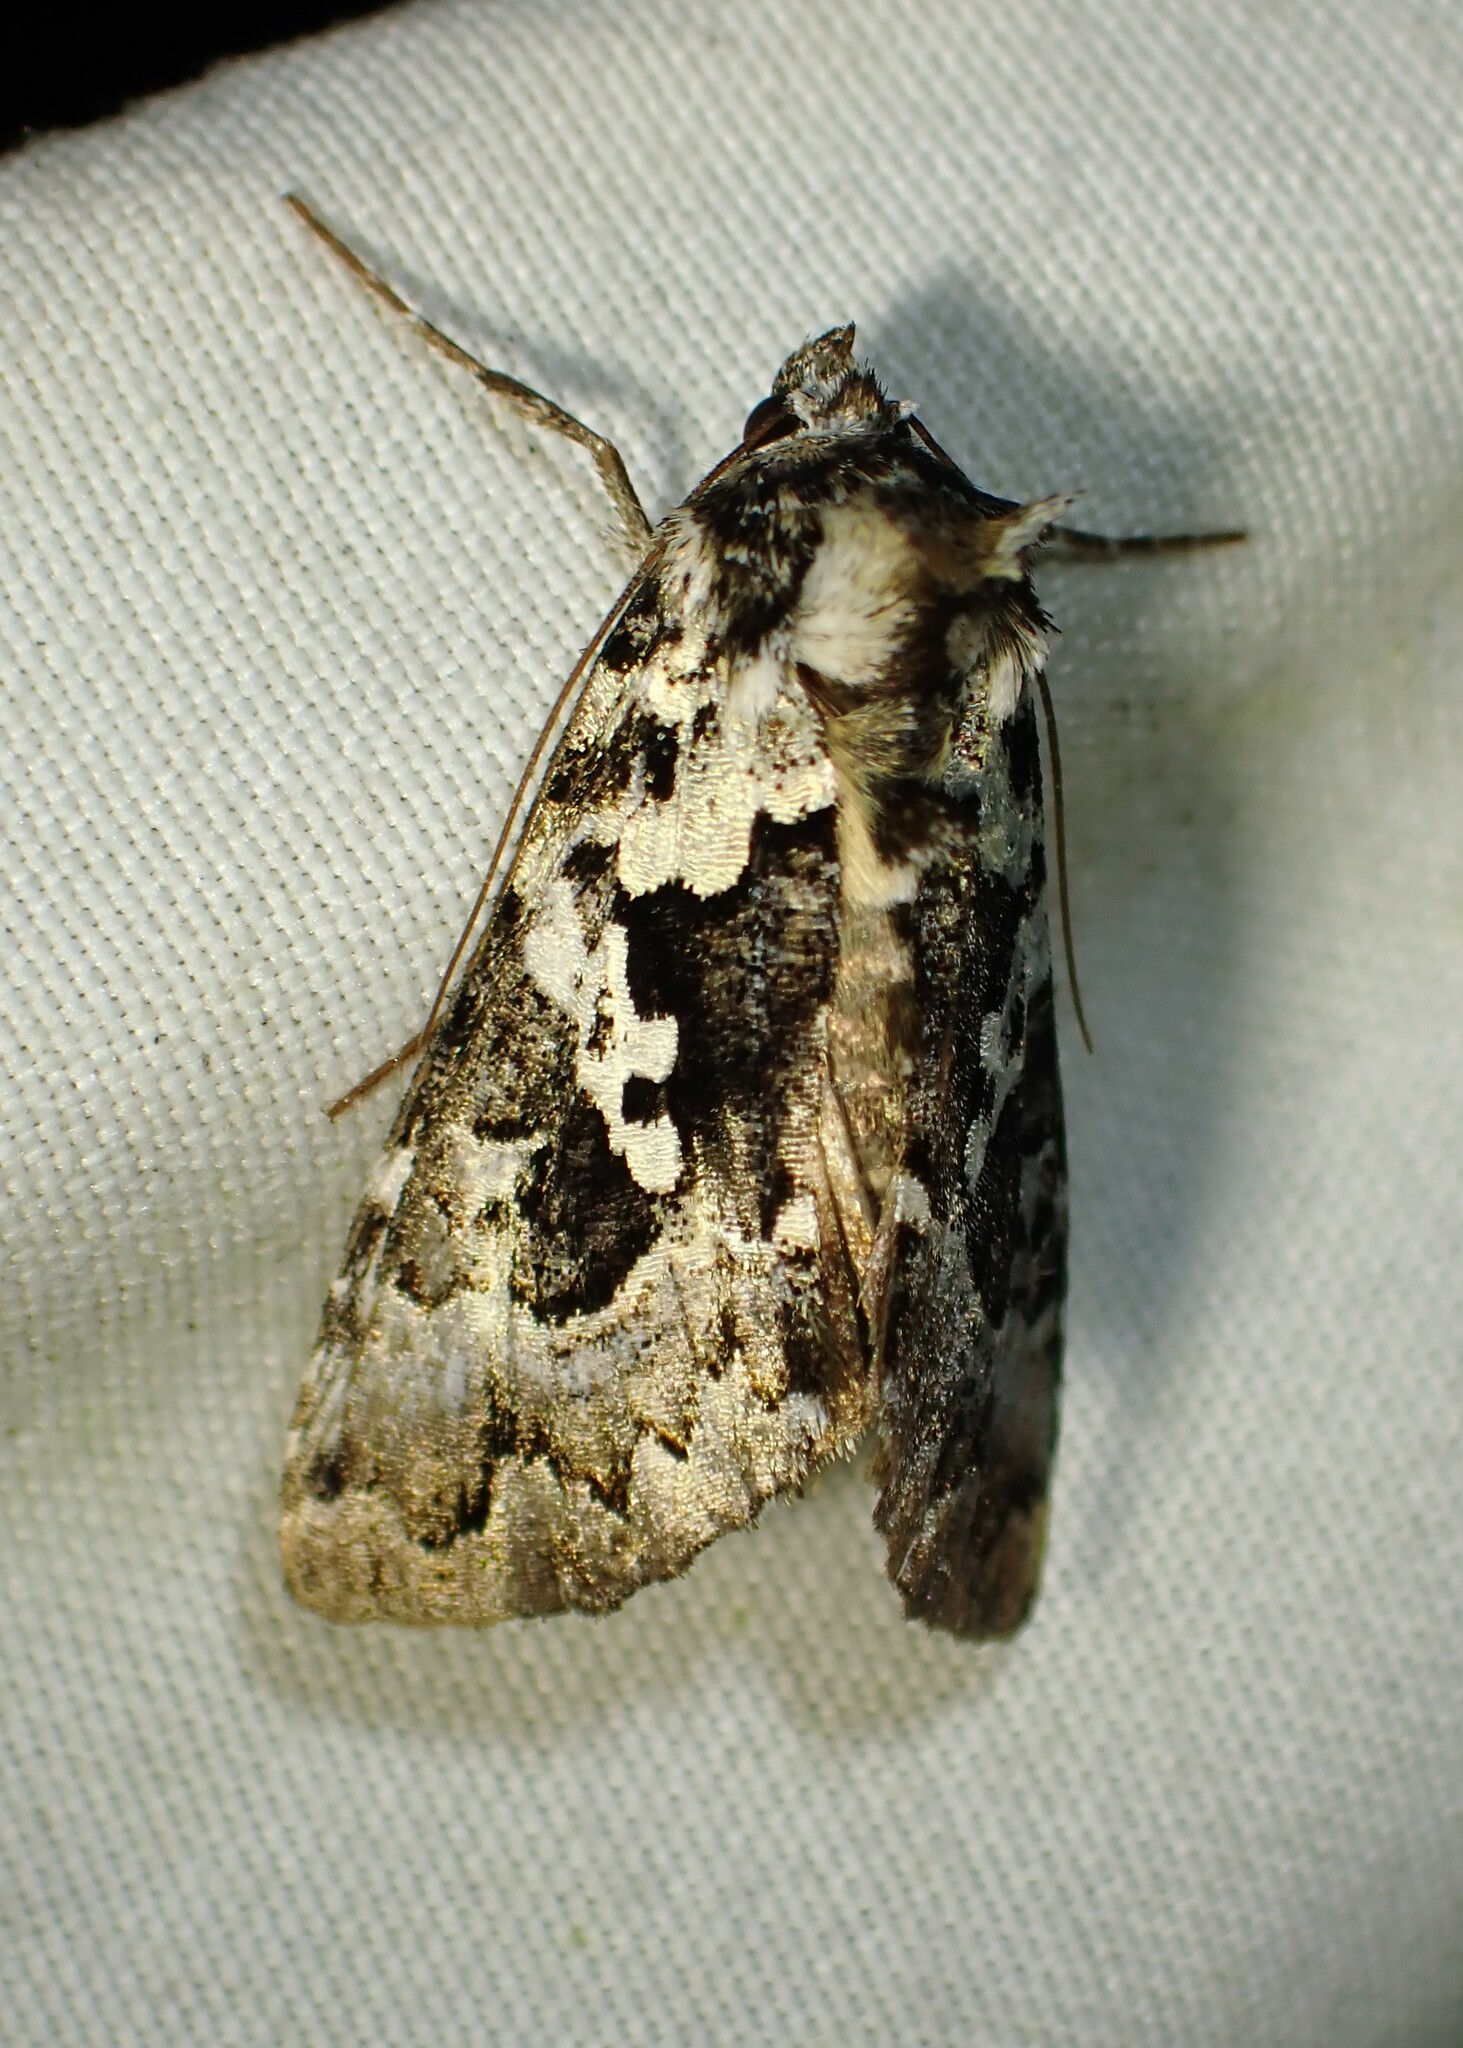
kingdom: Animalia
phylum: Arthropoda
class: Insecta
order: Lepidoptera
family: Noctuidae
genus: Syngrapha
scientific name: Syngrapha rectangula
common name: Angulated cutworm
